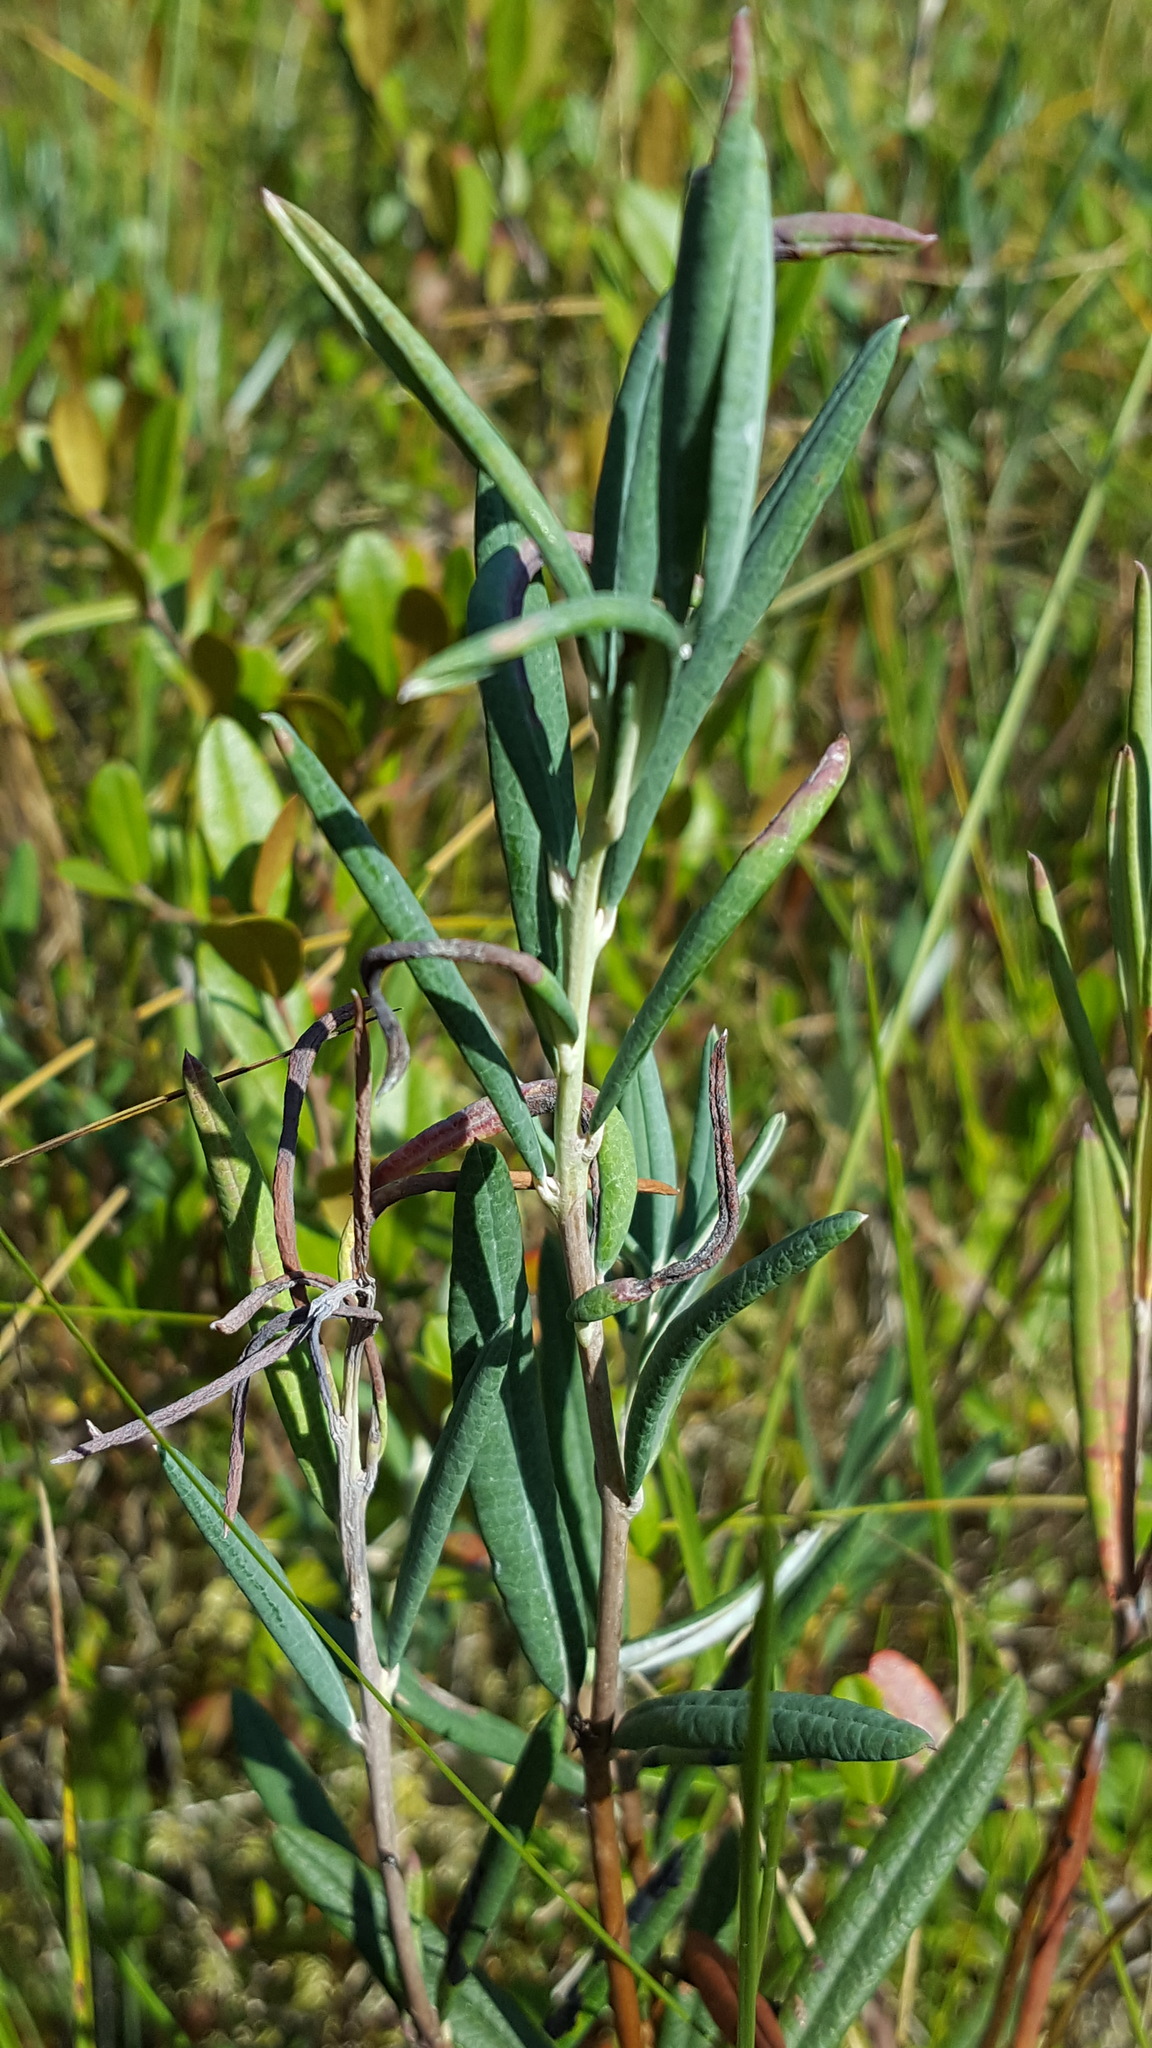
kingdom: Plantae
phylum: Tracheophyta
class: Magnoliopsida
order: Ericales
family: Ericaceae
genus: Andromeda
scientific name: Andromeda polifolia
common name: Bog-rosemary
